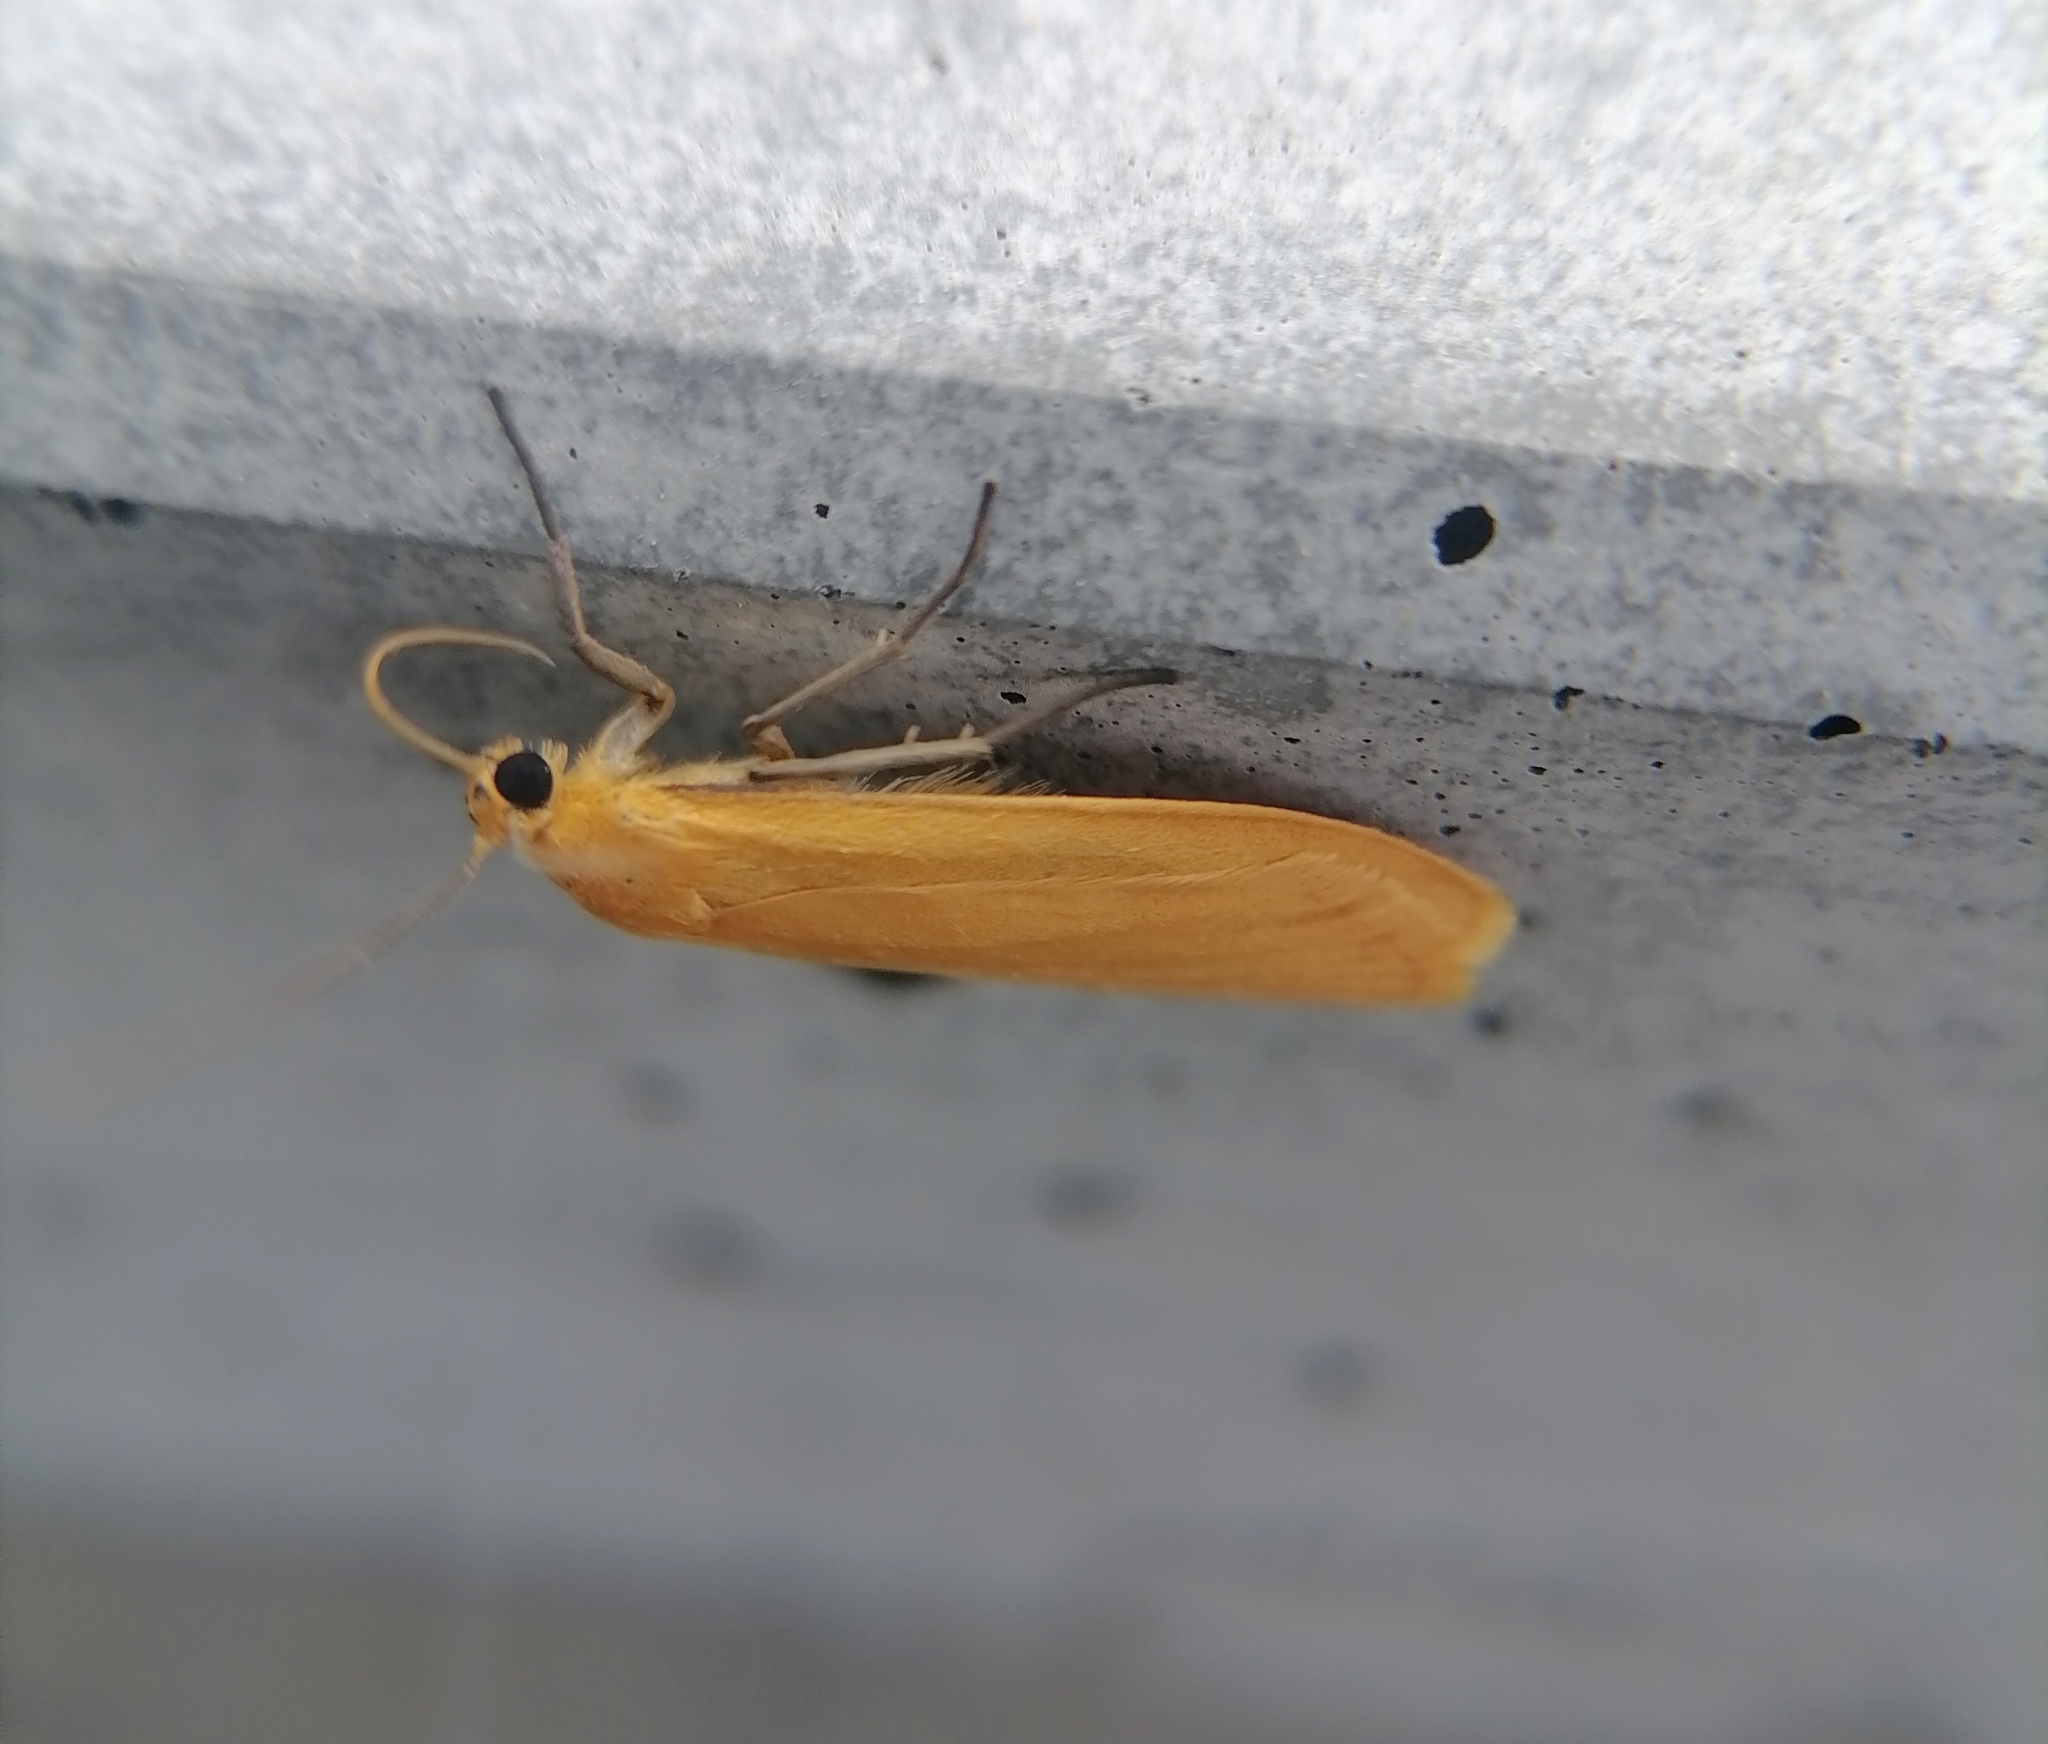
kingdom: Animalia
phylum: Arthropoda
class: Insecta
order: Lepidoptera
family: Erebidae
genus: Wittia
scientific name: Wittia sororcula
